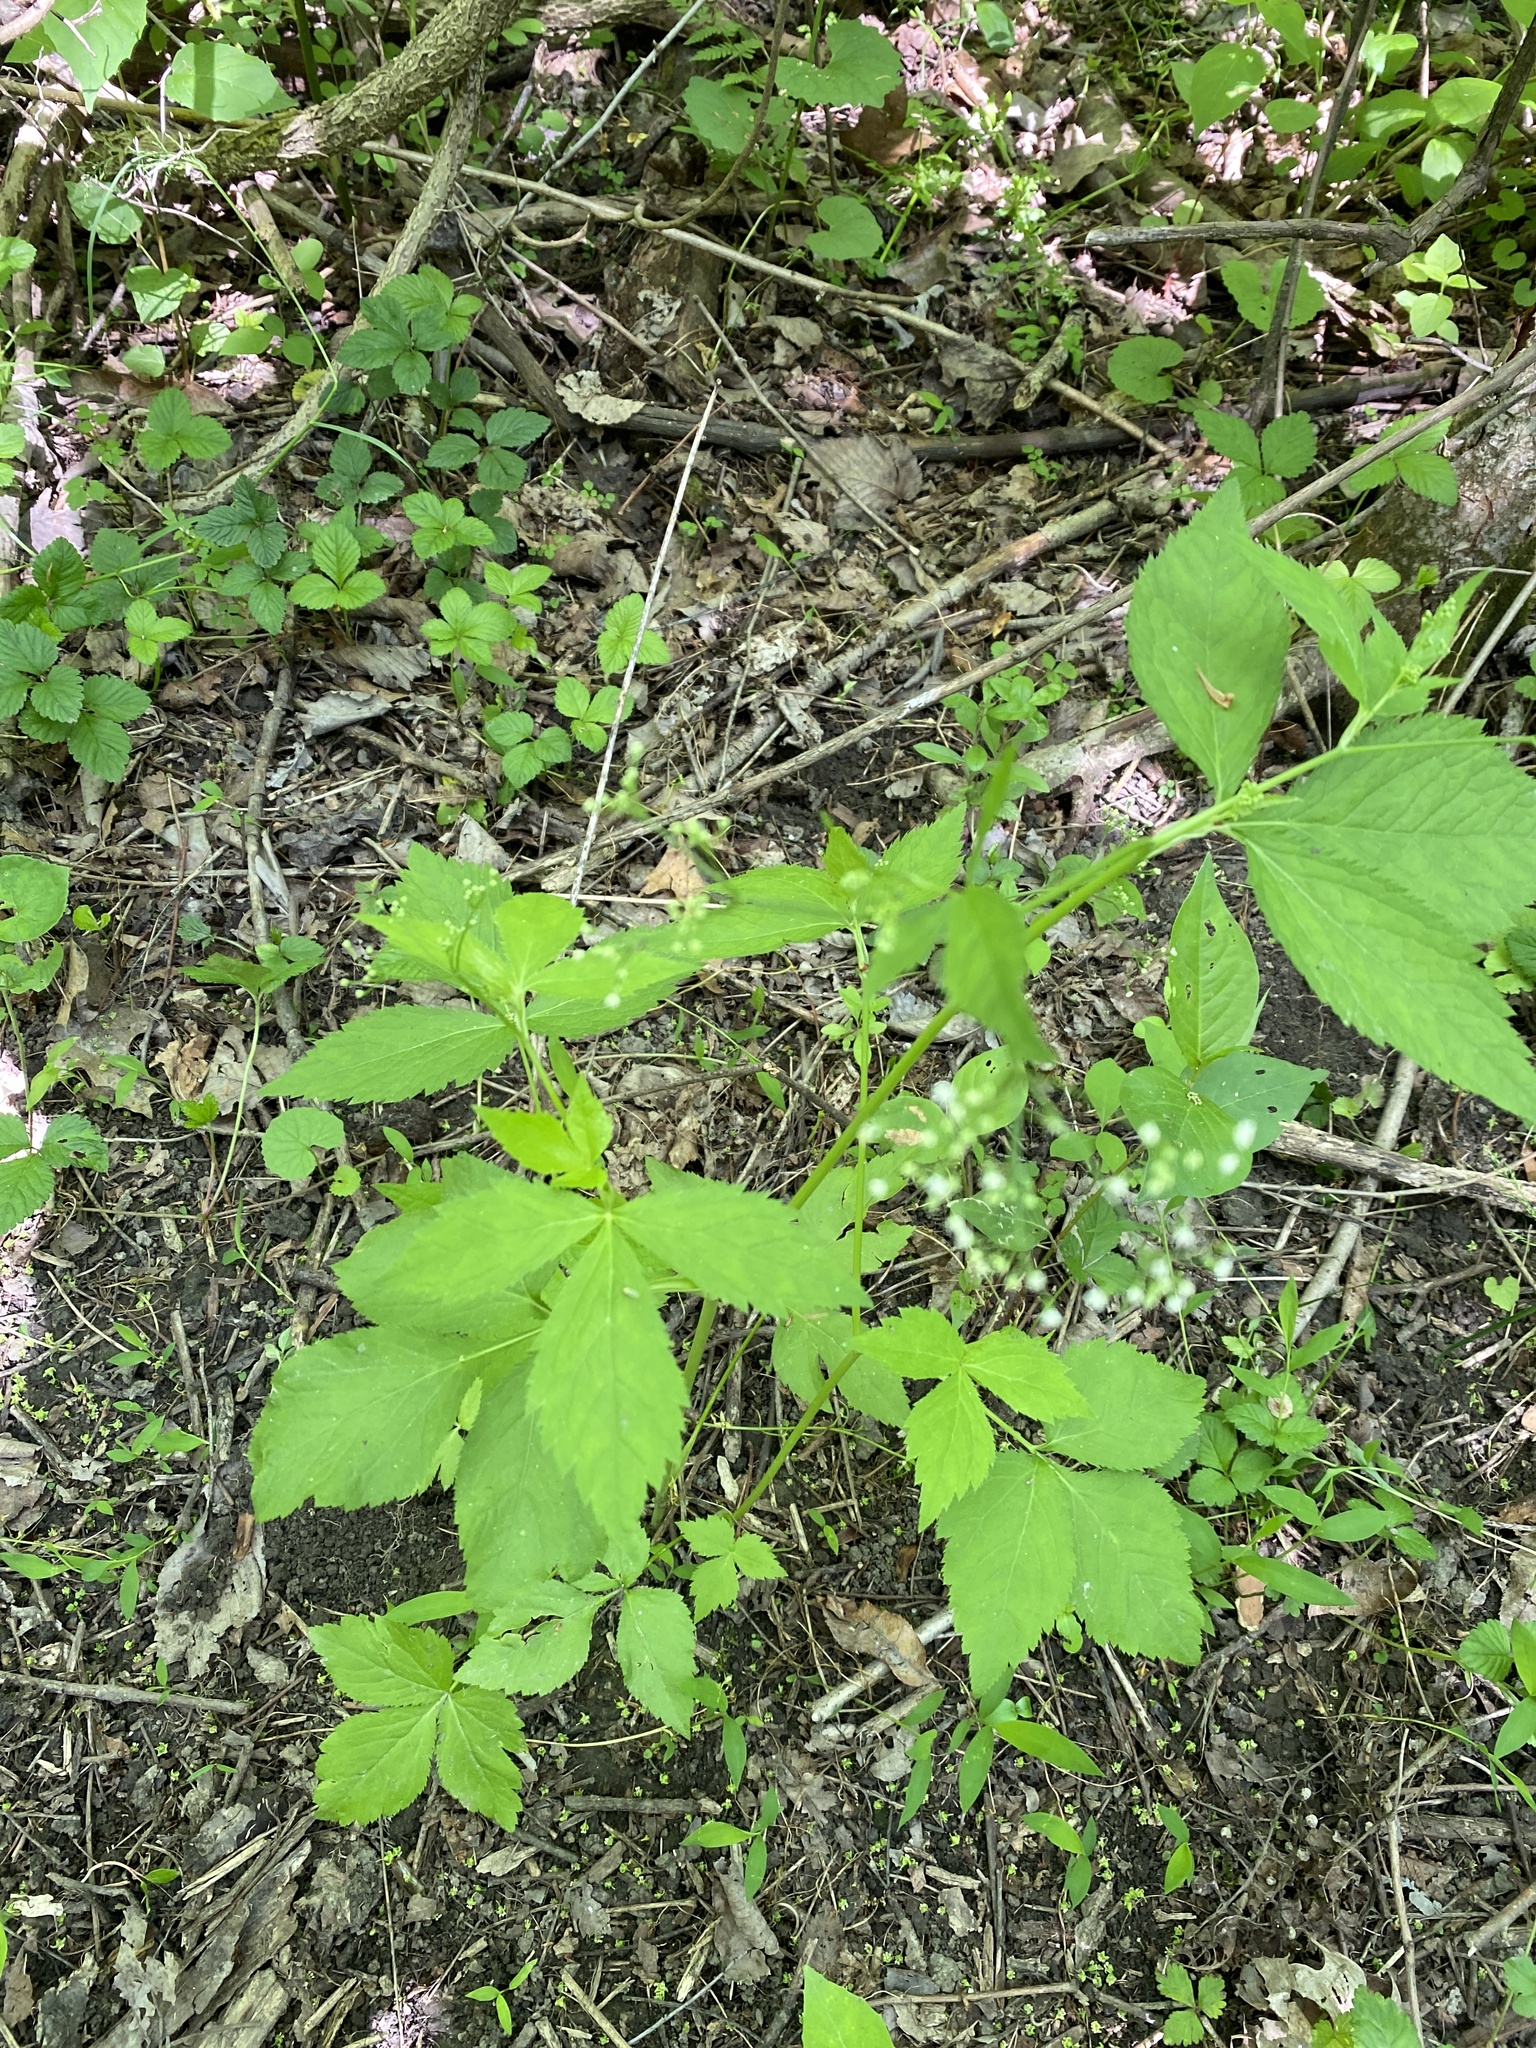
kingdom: Plantae
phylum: Tracheophyta
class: Magnoliopsida
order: Apiales
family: Apiaceae
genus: Cryptotaenia
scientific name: Cryptotaenia canadensis
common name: Honewort
